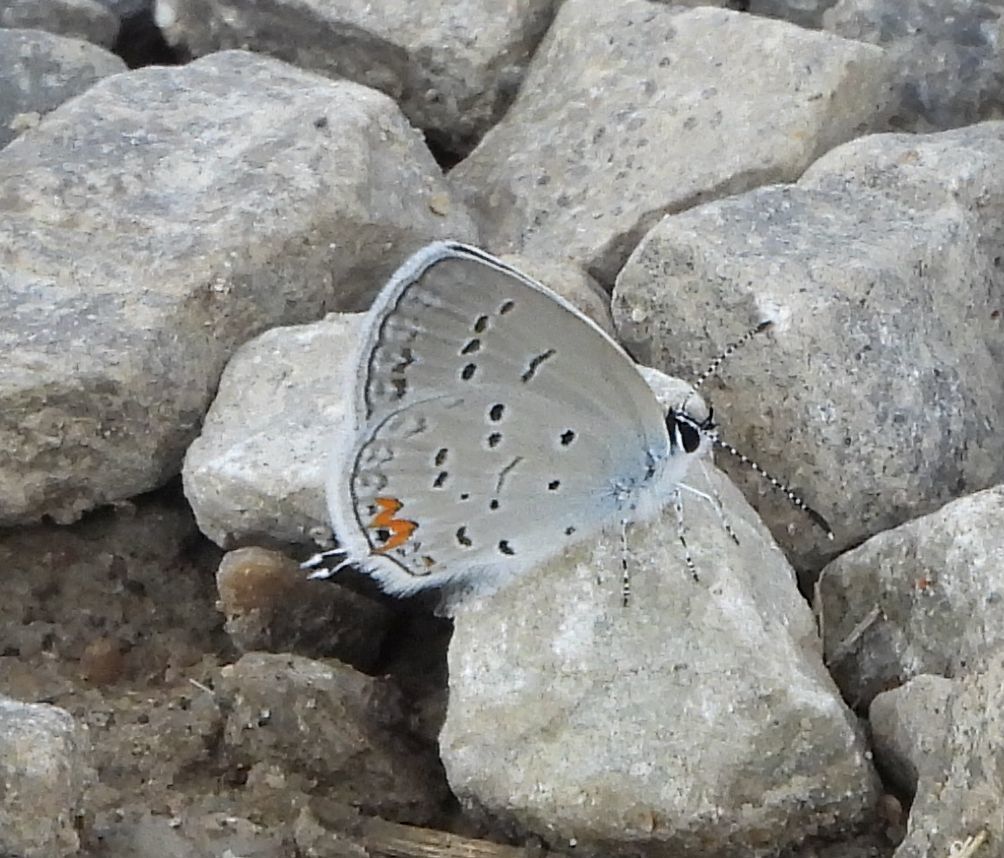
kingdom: Animalia
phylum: Arthropoda
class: Insecta
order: Lepidoptera
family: Lycaenidae
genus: Elkalyce
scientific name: Elkalyce comyntas
